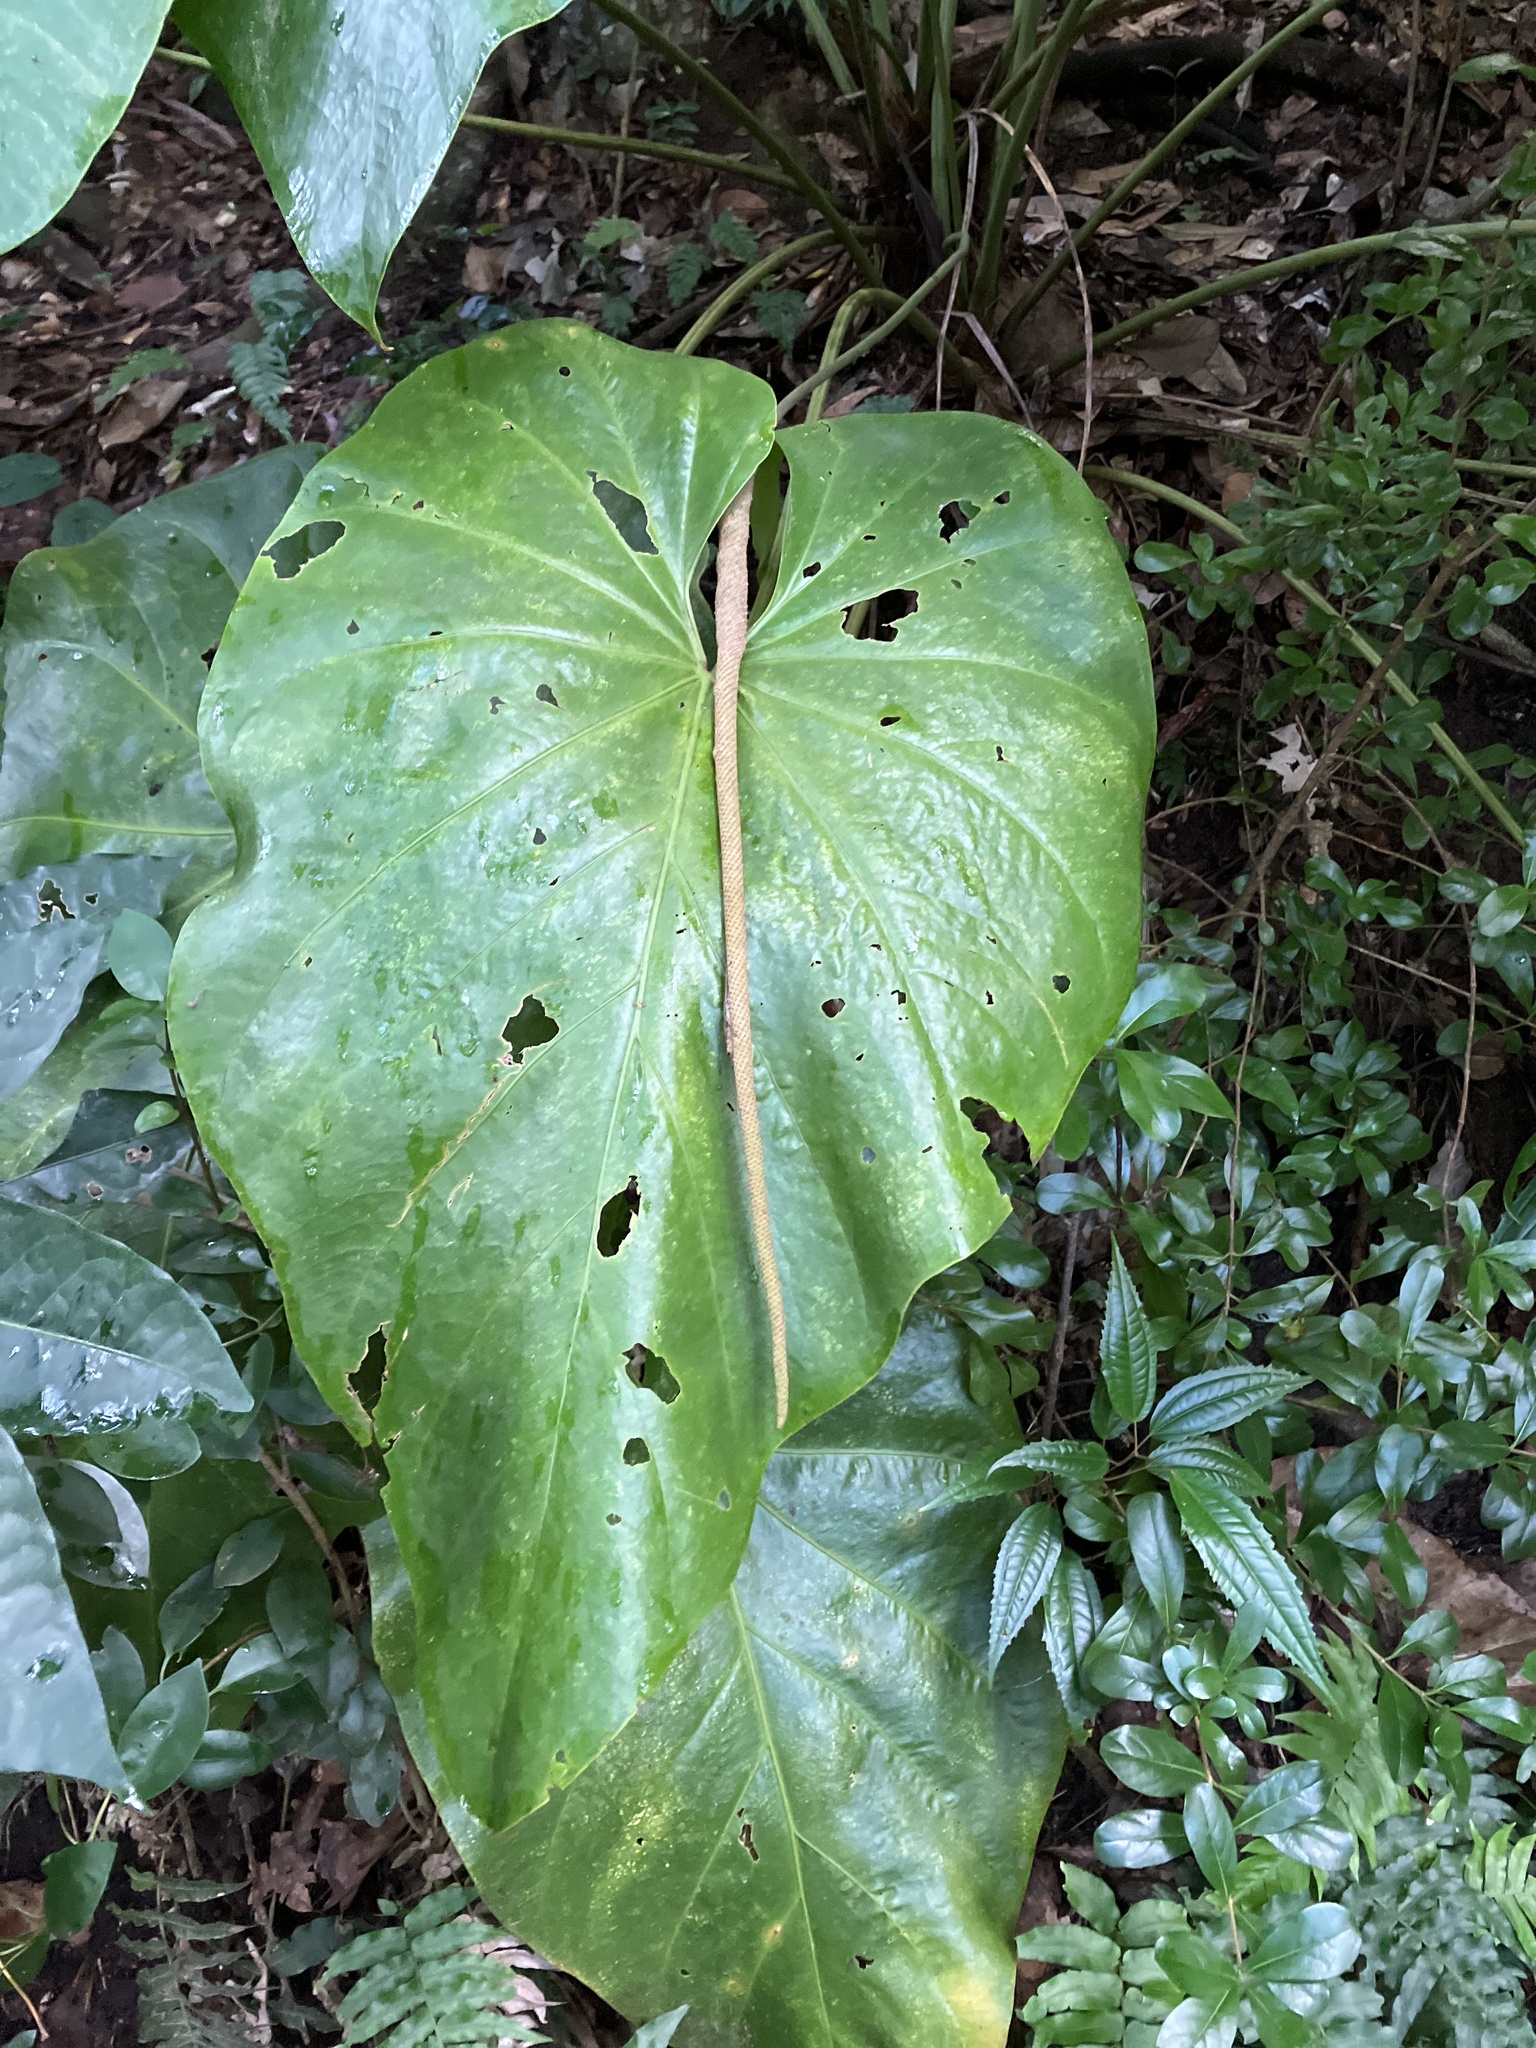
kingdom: Plantae
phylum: Tracheophyta
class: Liliopsida
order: Alismatales
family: Araceae
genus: Anthurium
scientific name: Anthurium cordatum
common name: Monkey tail
